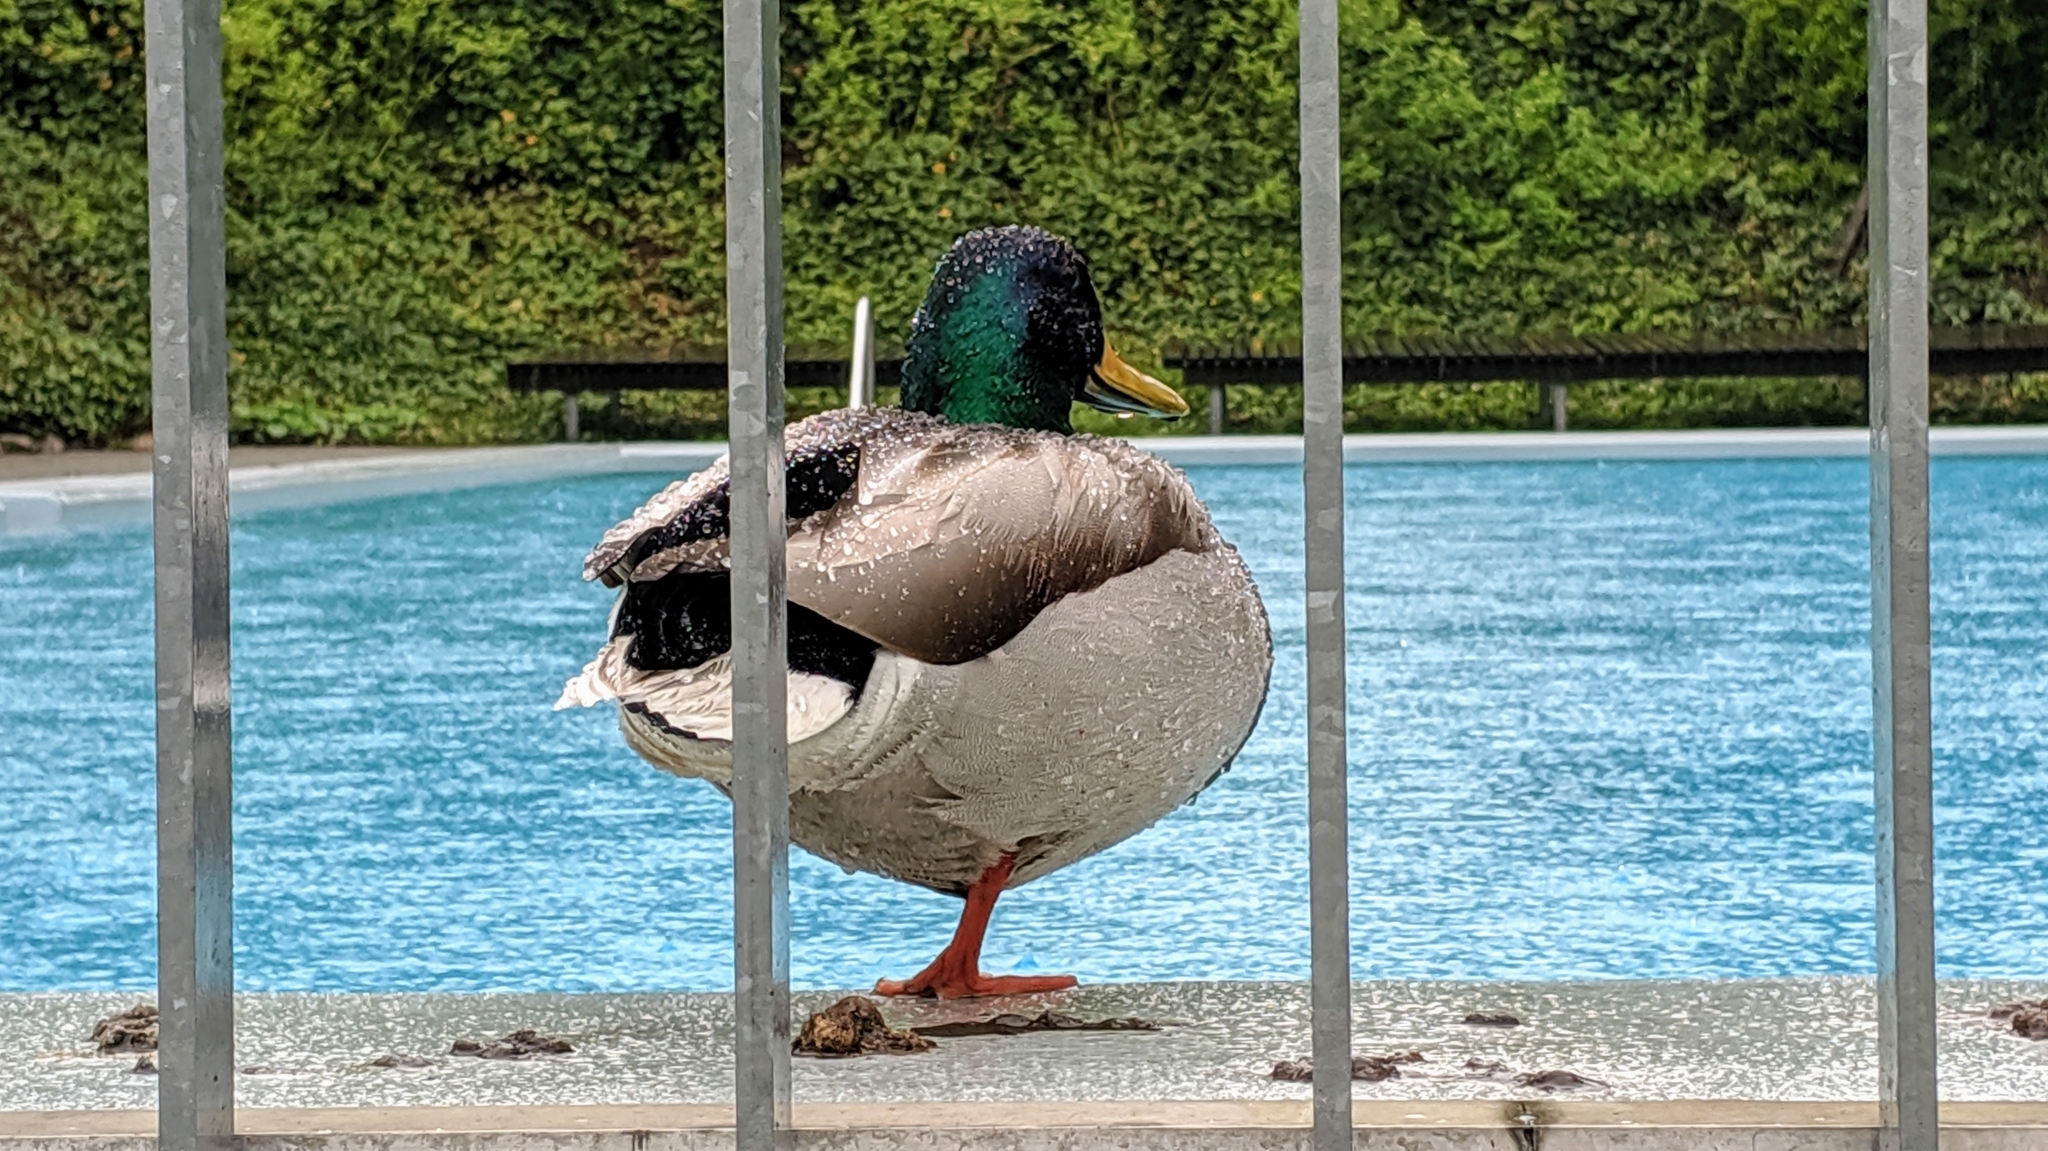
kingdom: Animalia
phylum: Chordata
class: Aves
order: Anseriformes
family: Anatidae
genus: Anas
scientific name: Anas platyrhynchos
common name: Mallard
